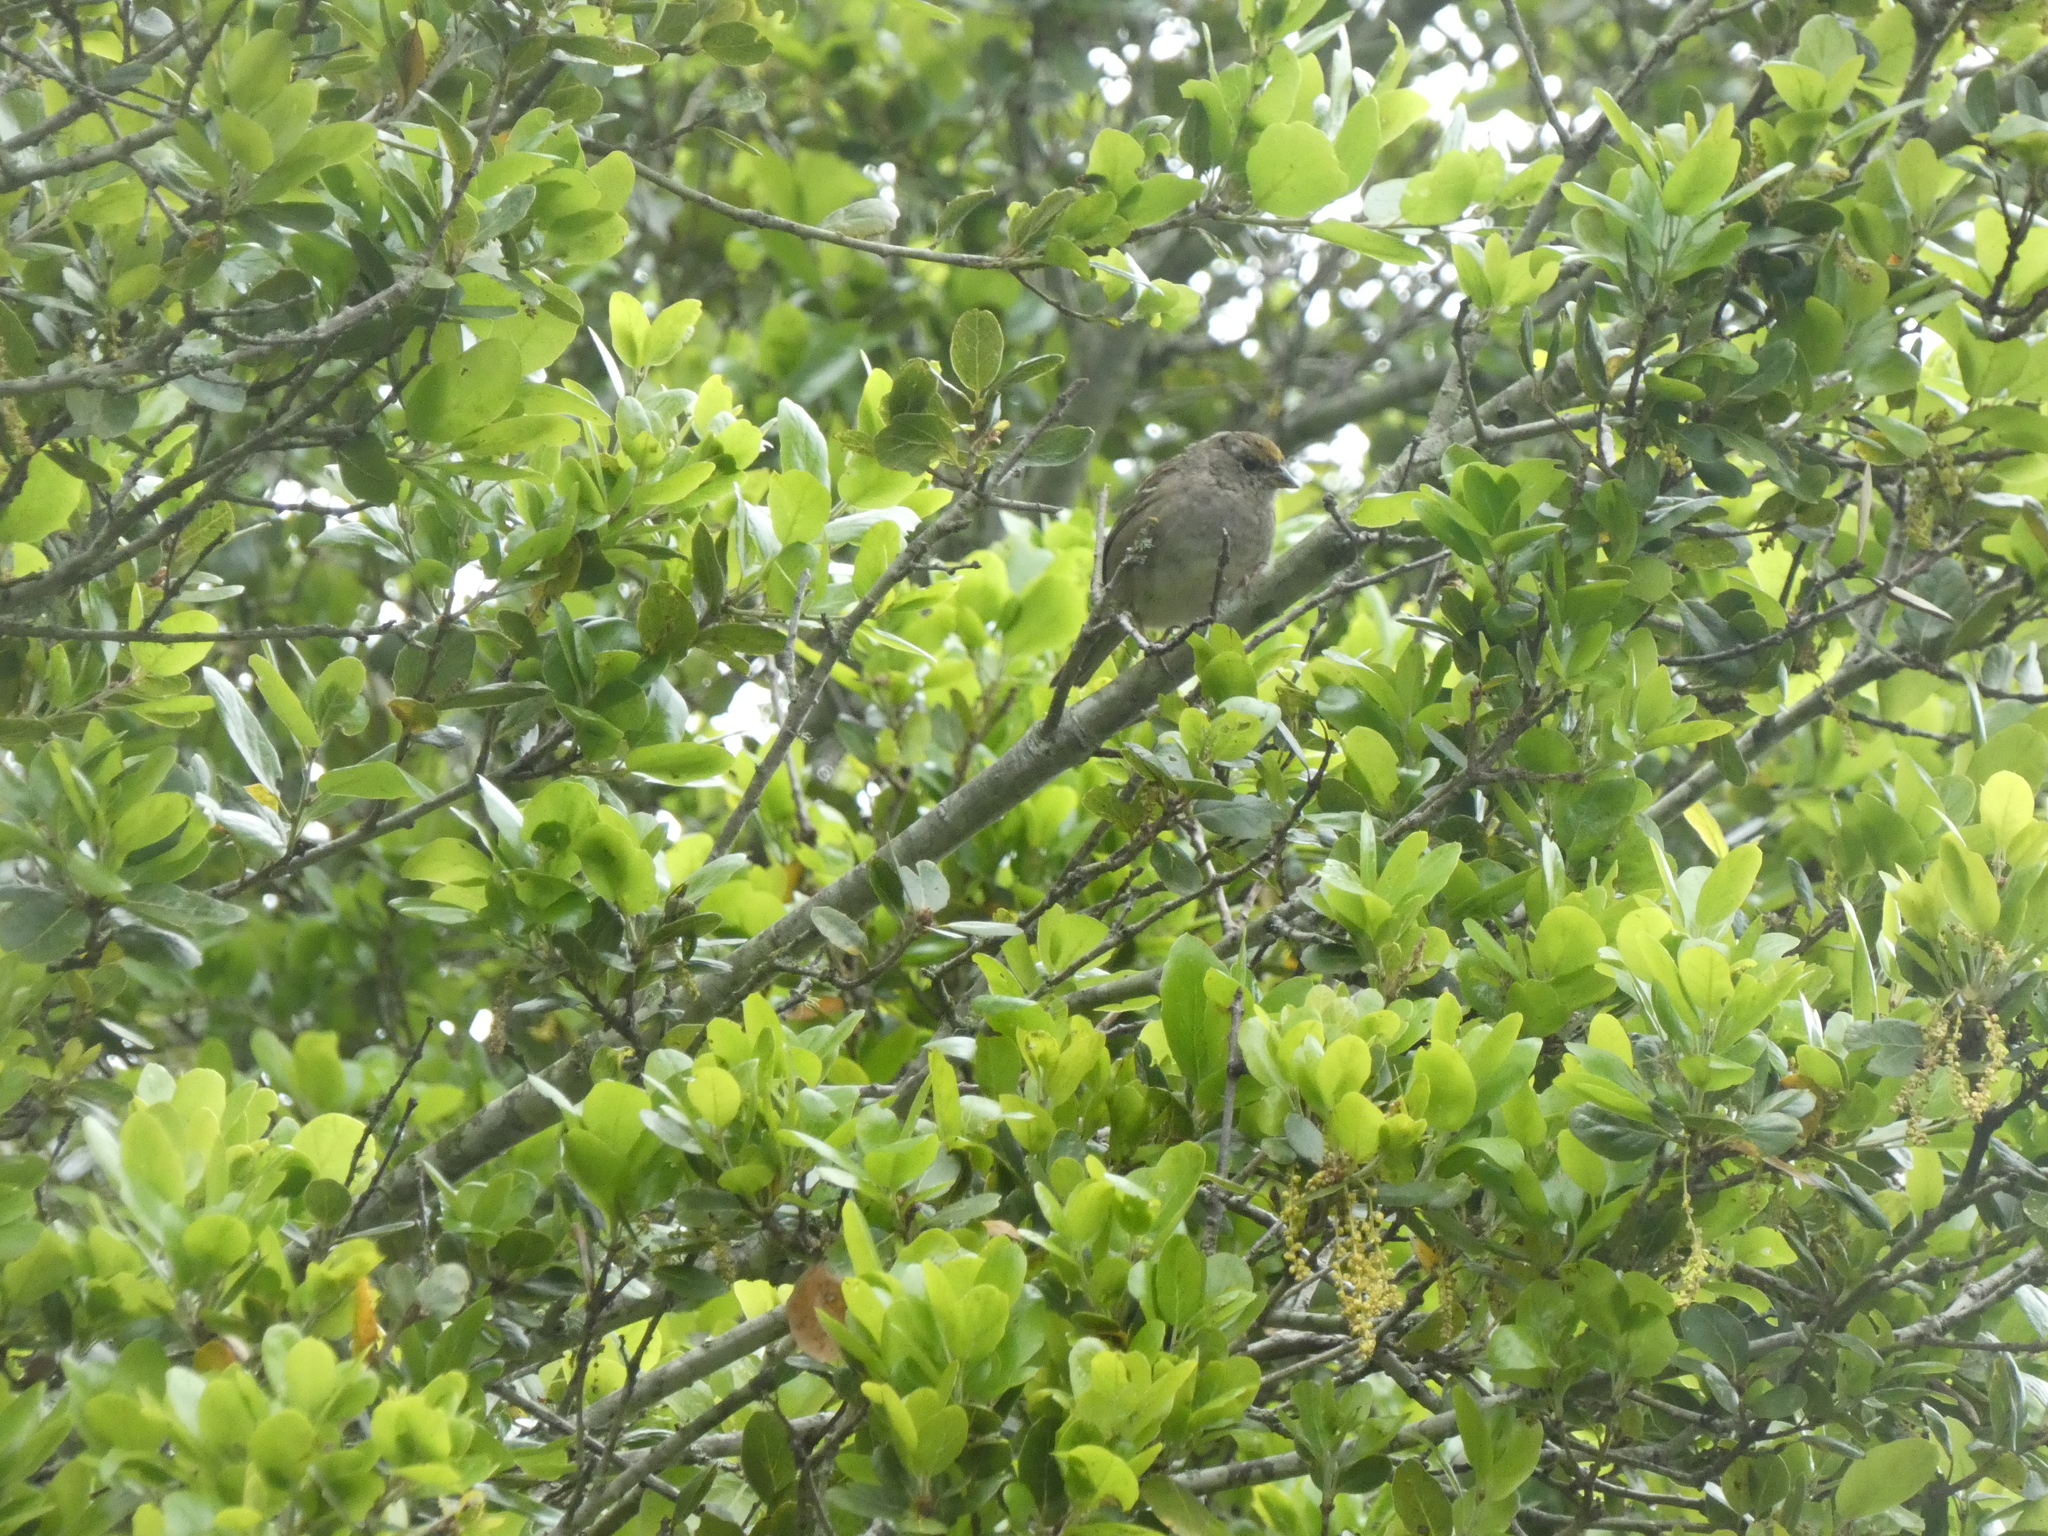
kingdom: Animalia
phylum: Chordata
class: Aves
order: Passeriformes
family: Passerellidae
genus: Zonotrichia
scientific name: Zonotrichia atricapilla
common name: Golden-crowned sparrow
